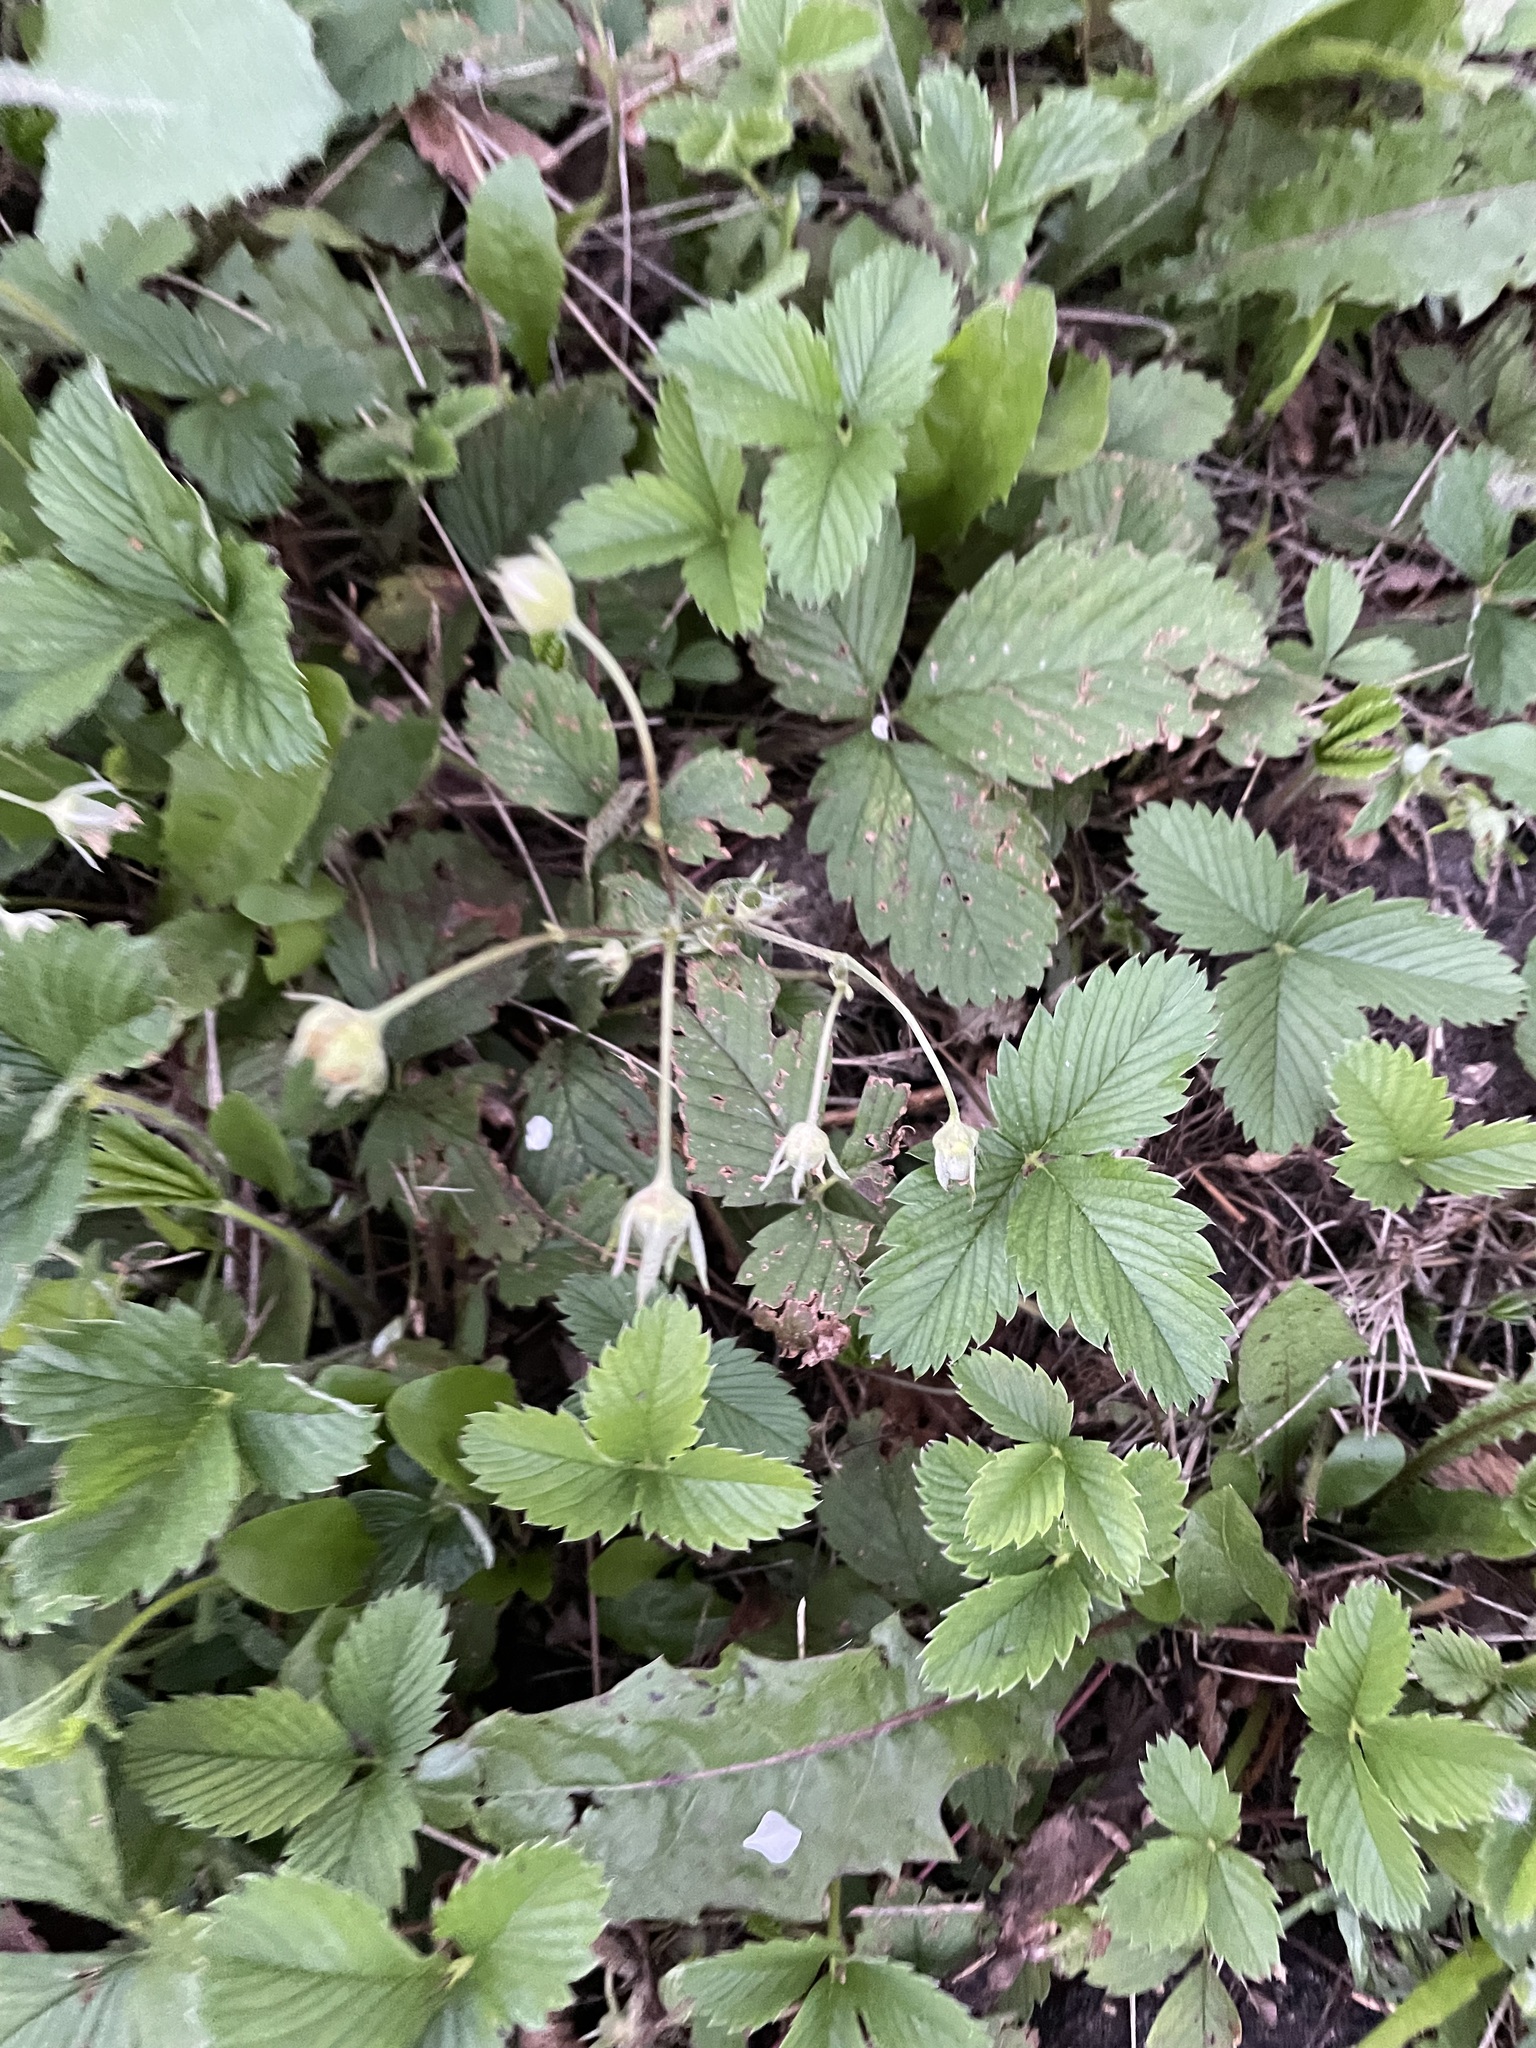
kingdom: Plantae
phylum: Tracheophyta
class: Magnoliopsida
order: Rosales
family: Rosaceae
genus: Fragaria
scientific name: Fragaria viridis
